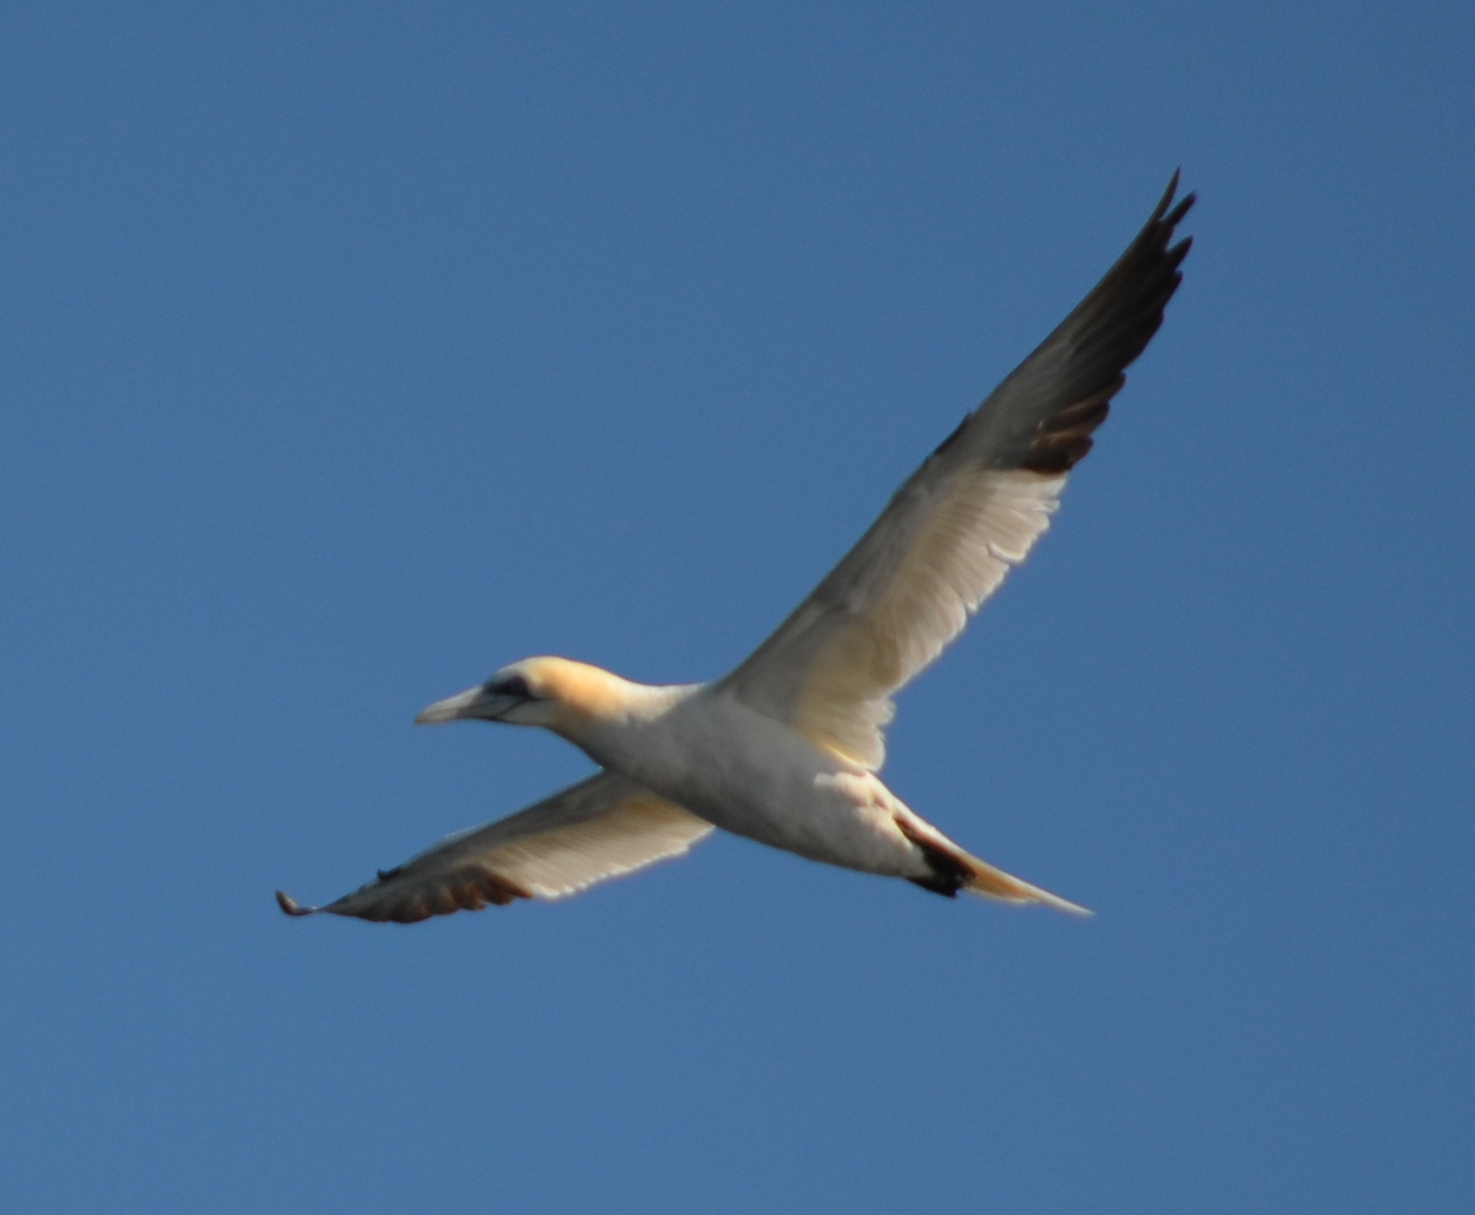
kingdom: Animalia
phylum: Chordata
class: Aves
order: Suliformes
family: Sulidae
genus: Morus
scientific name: Morus bassanus
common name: Northern gannet
